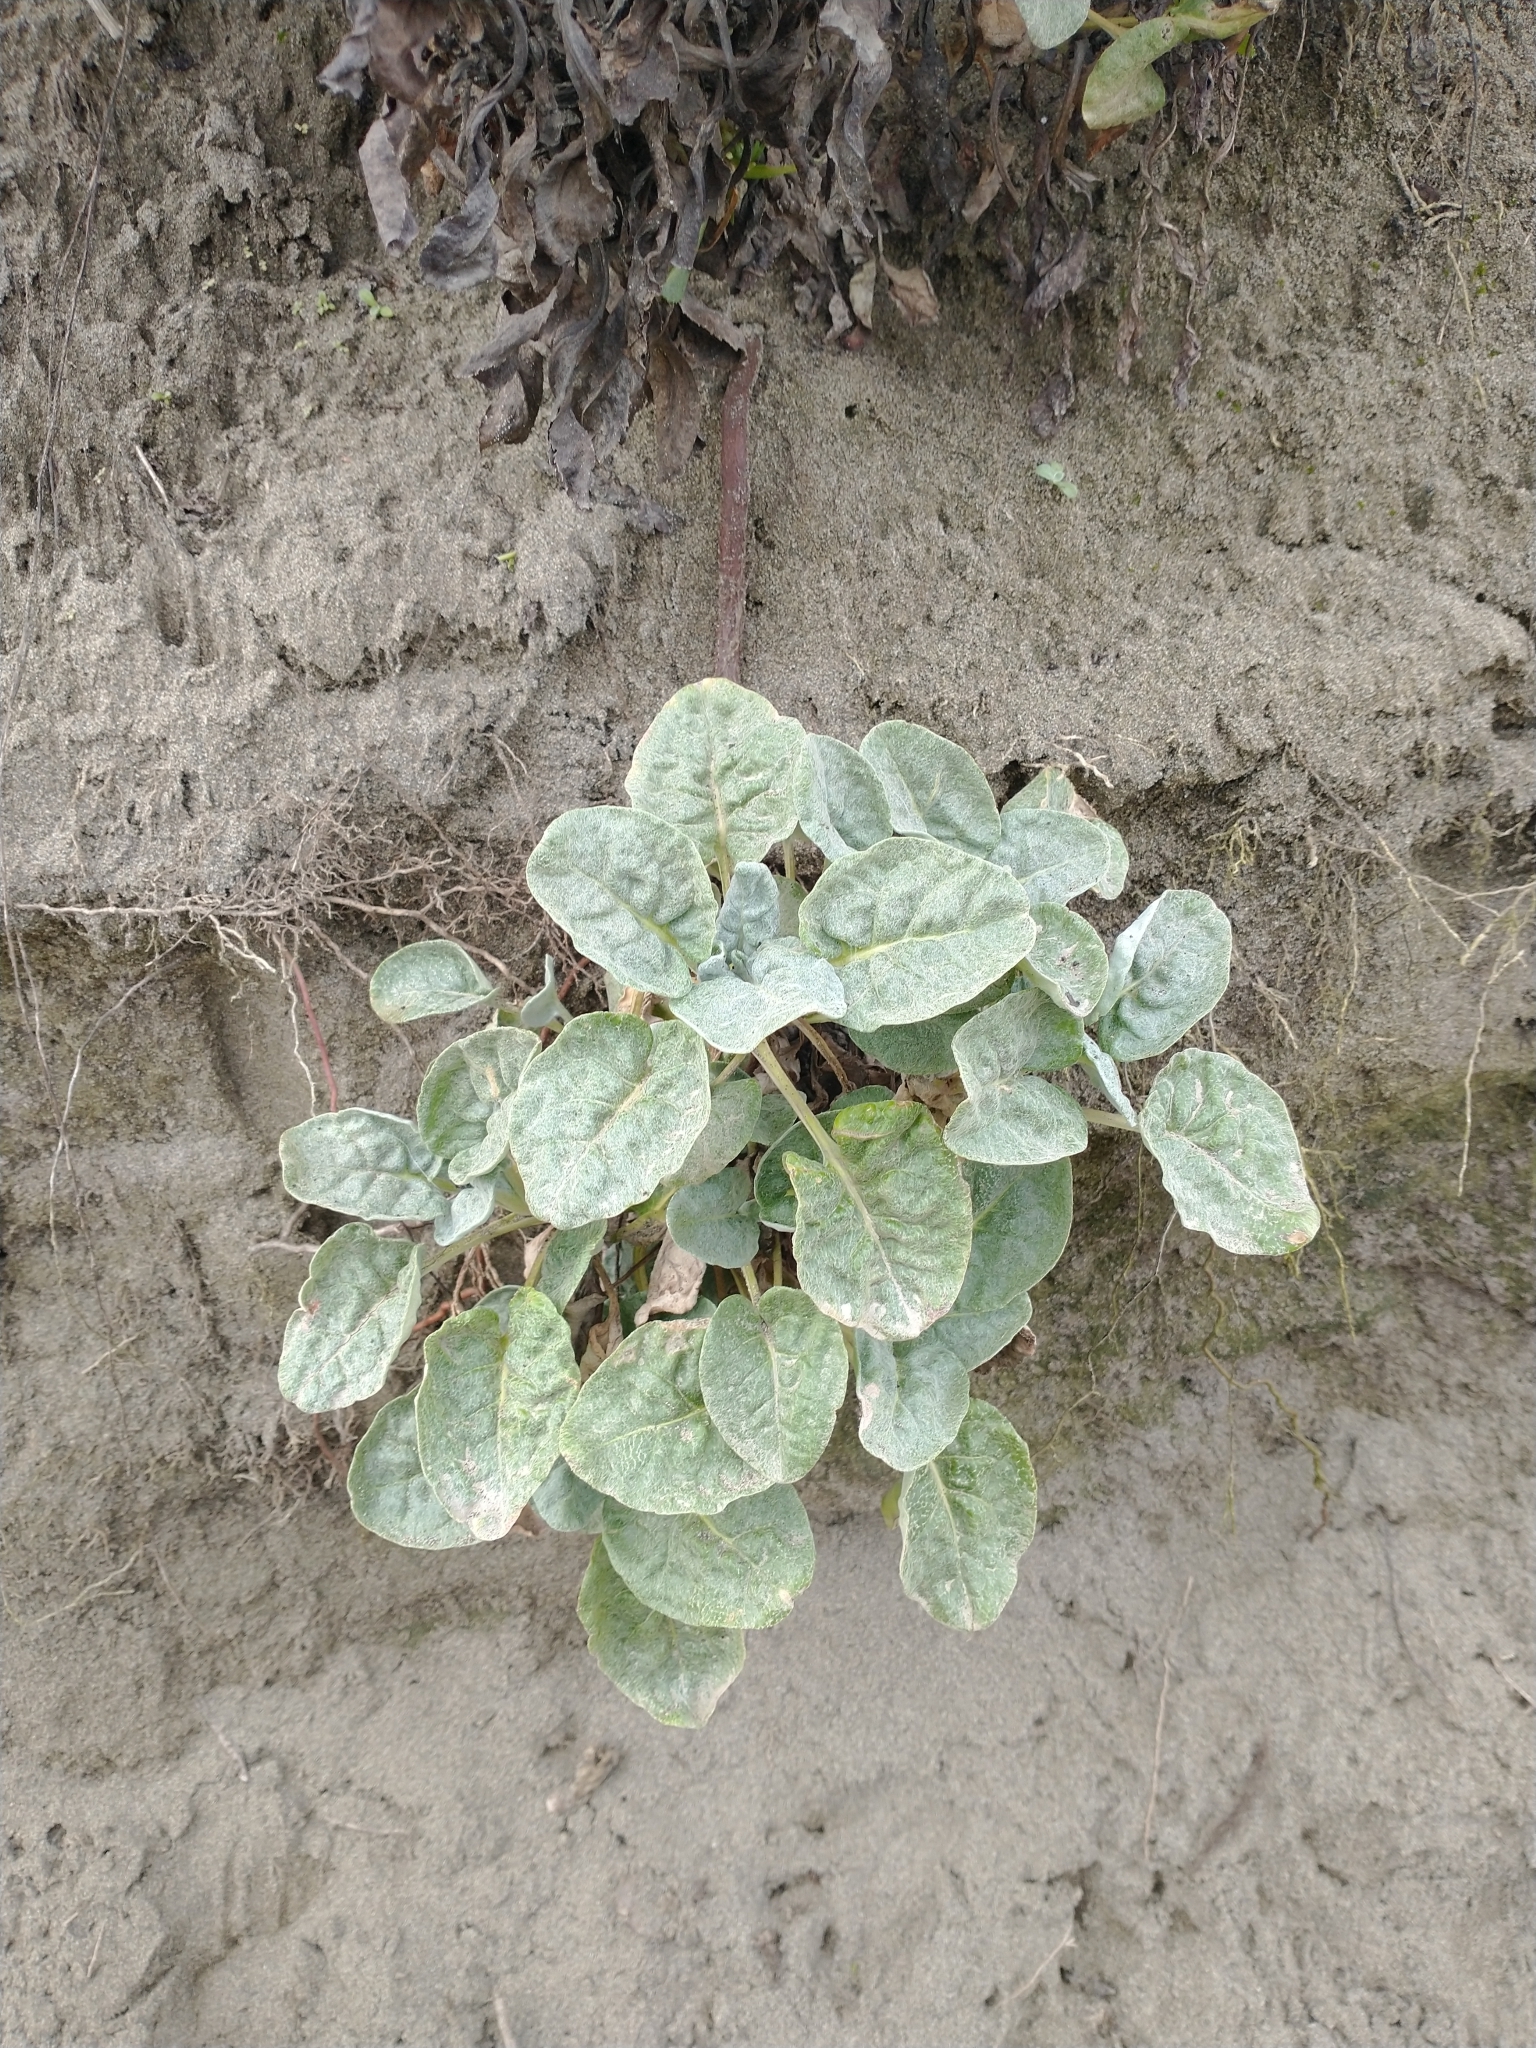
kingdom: Plantae
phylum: Tracheophyta
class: Magnoliopsida
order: Caryophyllales
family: Polygonaceae
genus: Eriogonum
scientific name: Eriogonum latifolium
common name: Seaside wild buckwheat
